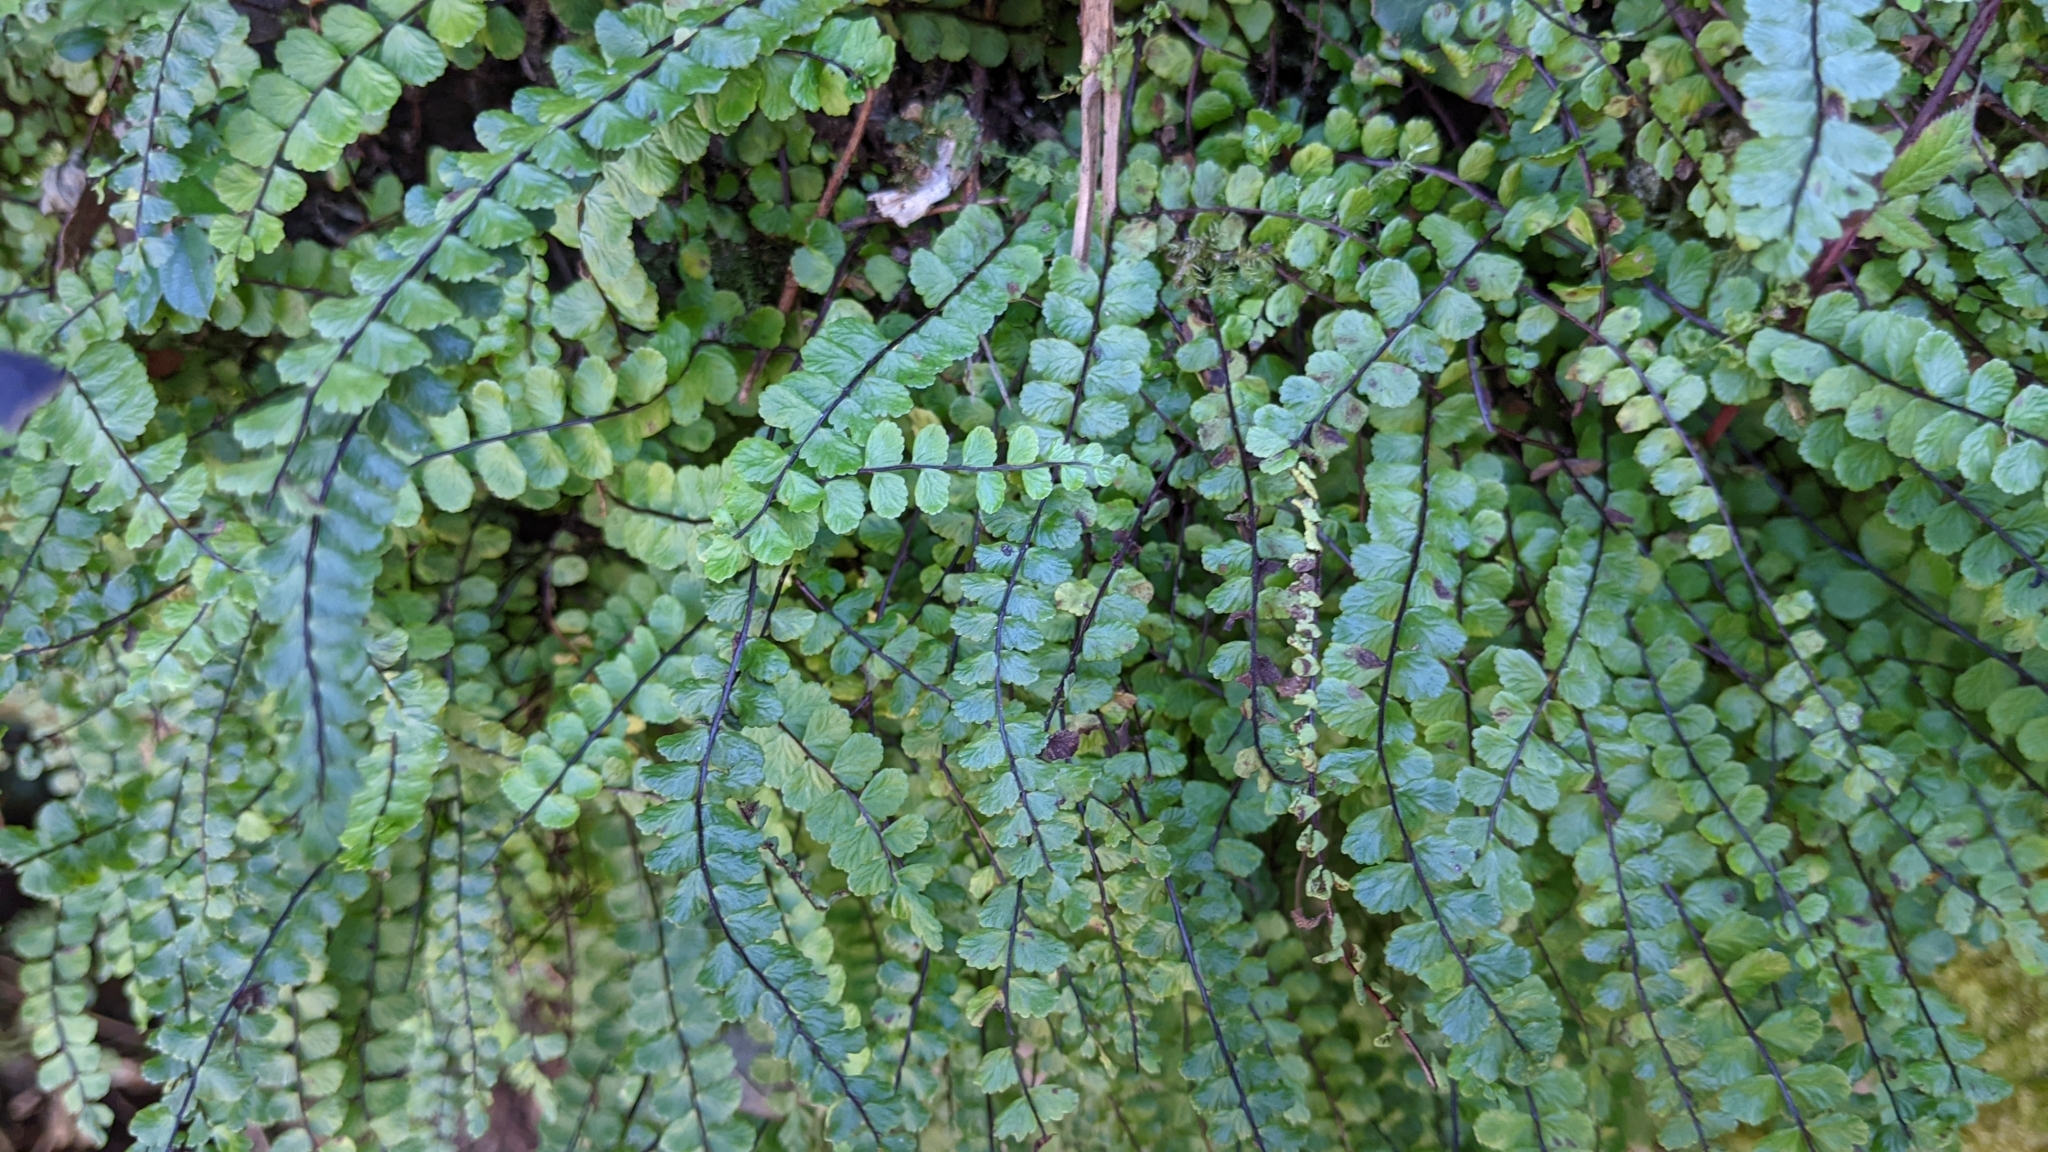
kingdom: Plantae
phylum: Tracheophyta
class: Polypodiopsida
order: Polypodiales
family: Aspleniaceae
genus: Asplenium
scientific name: Asplenium trichomanes
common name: Maidenhair spleenwort
